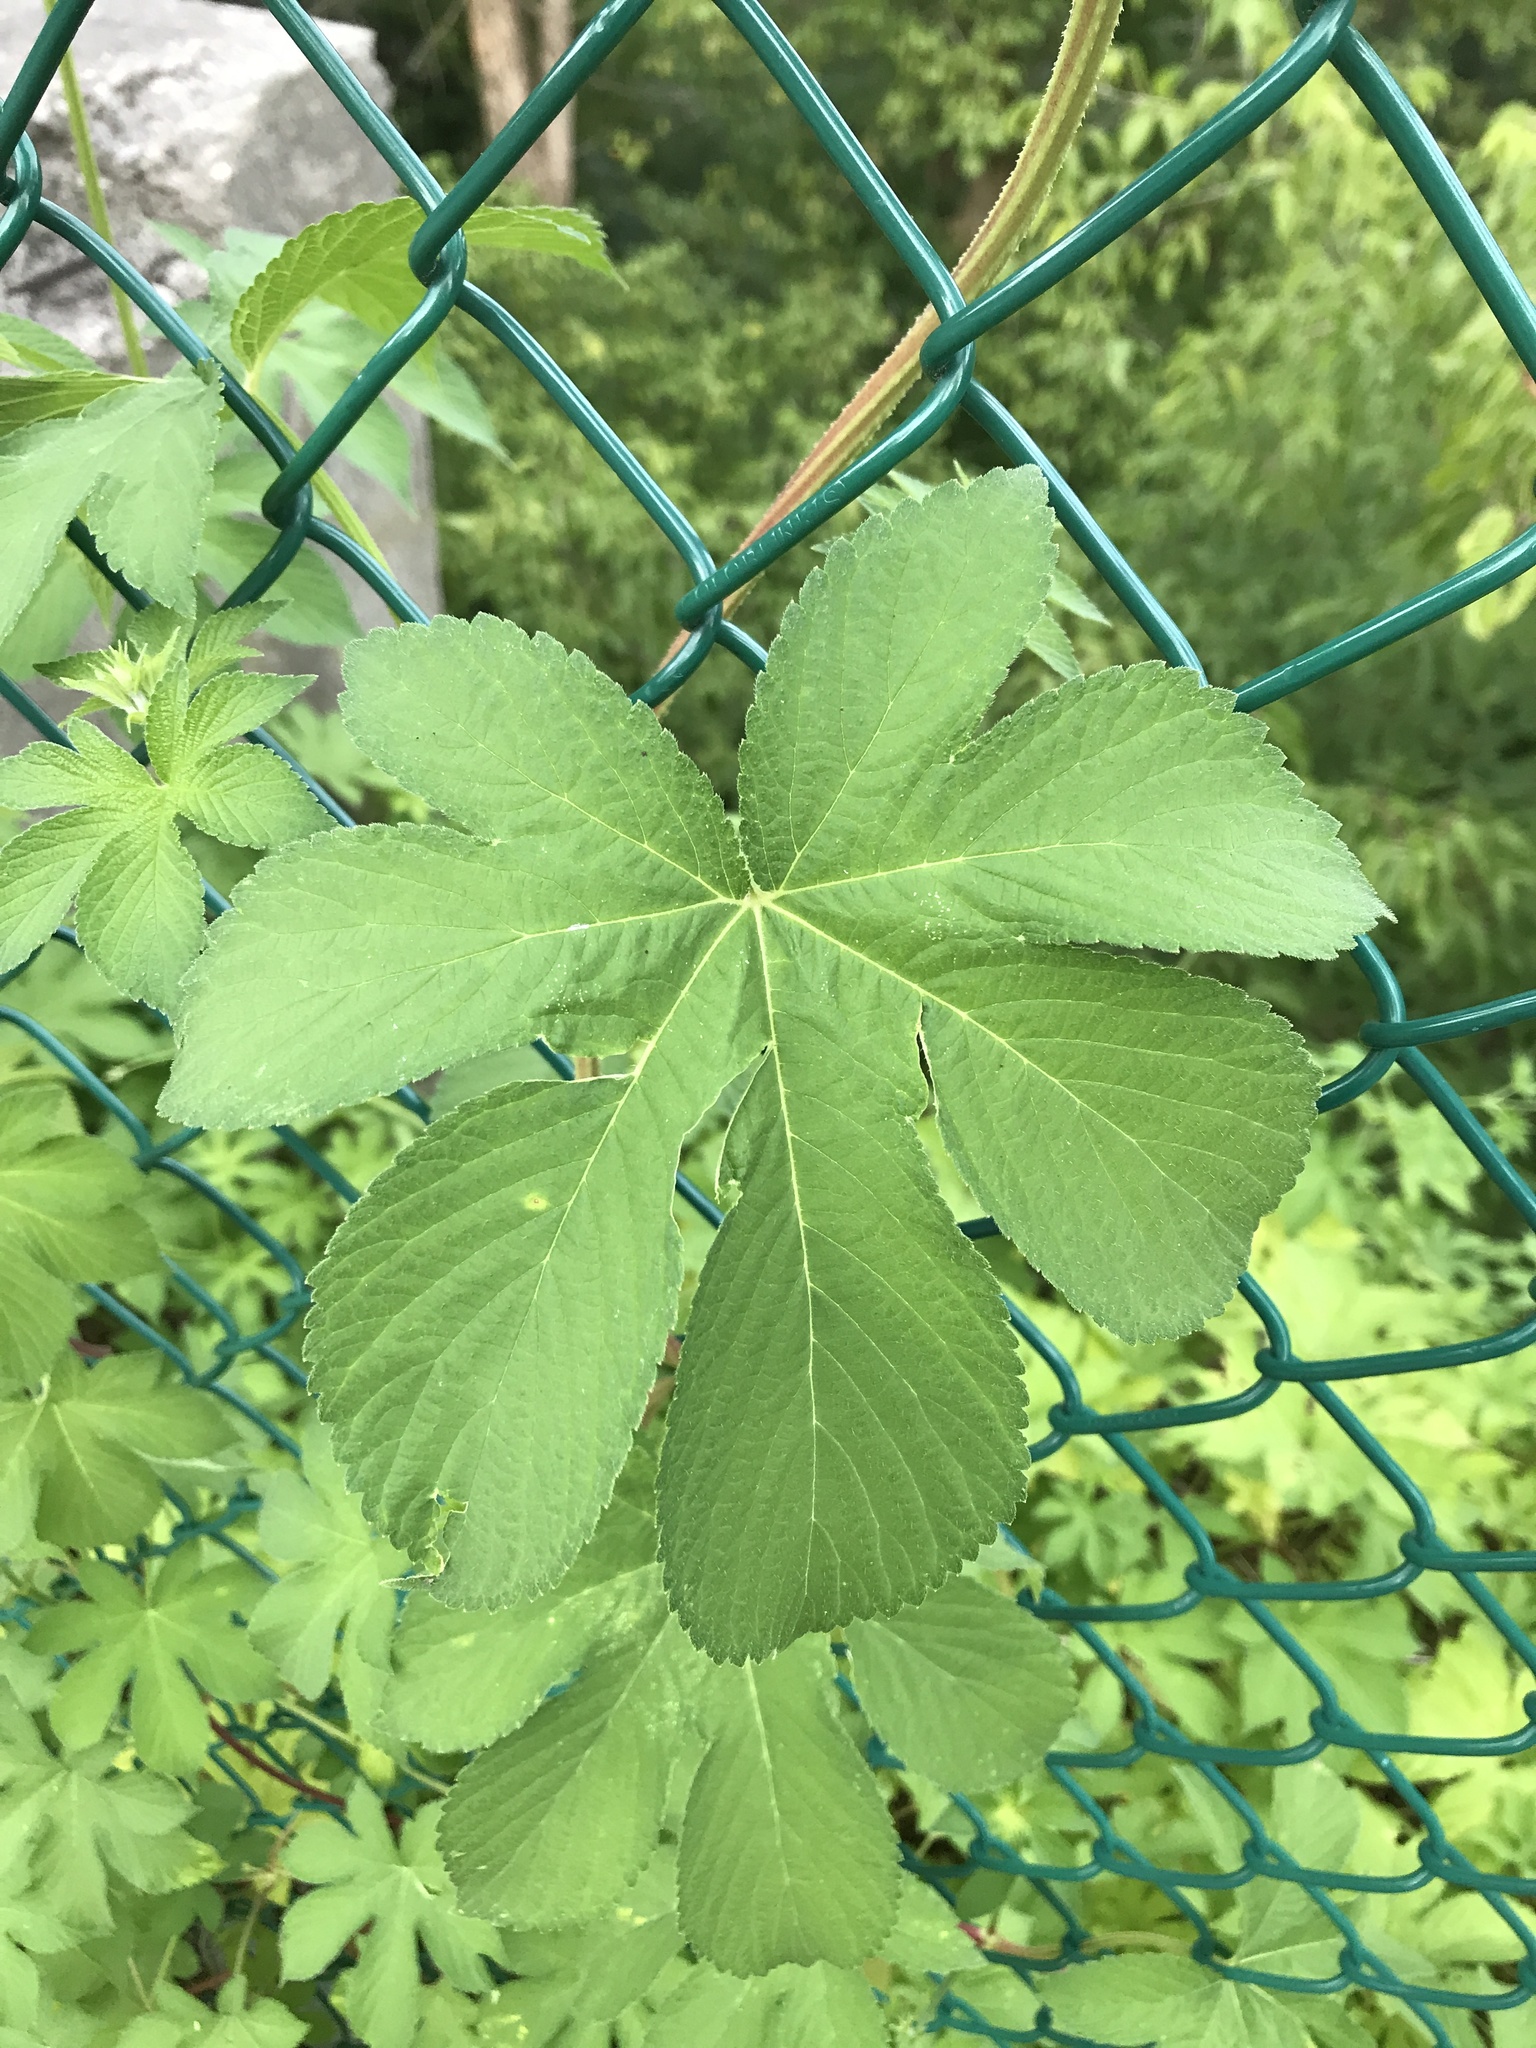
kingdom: Plantae
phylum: Tracheophyta
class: Magnoliopsida
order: Rosales
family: Cannabaceae
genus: Humulus
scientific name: Humulus scandens
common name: Japanese hop
